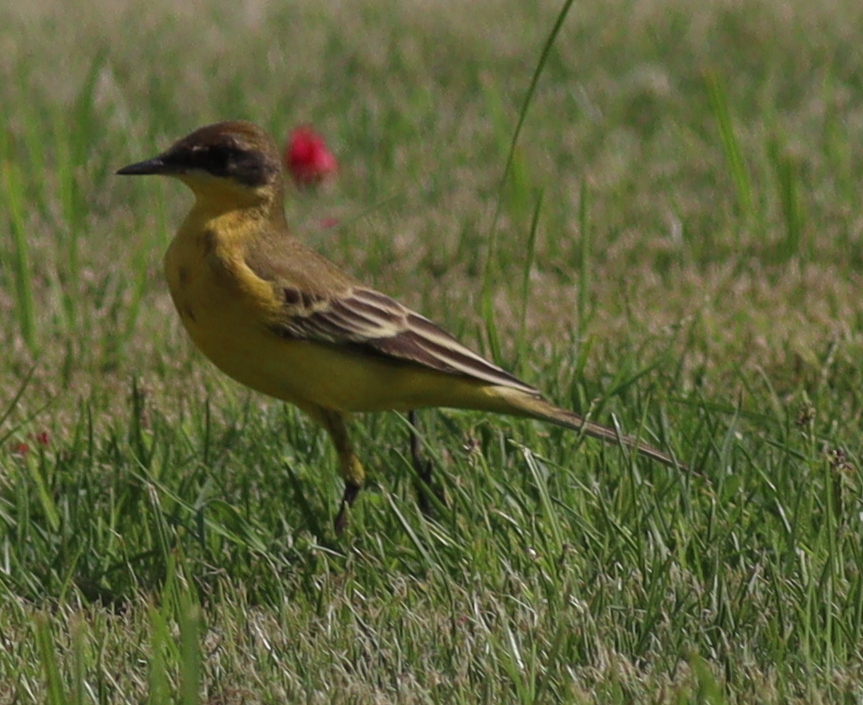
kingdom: Animalia
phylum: Chordata
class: Aves
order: Passeriformes
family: Motacillidae
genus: Motacilla
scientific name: Motacilla flava
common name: Western yellow wagtail
